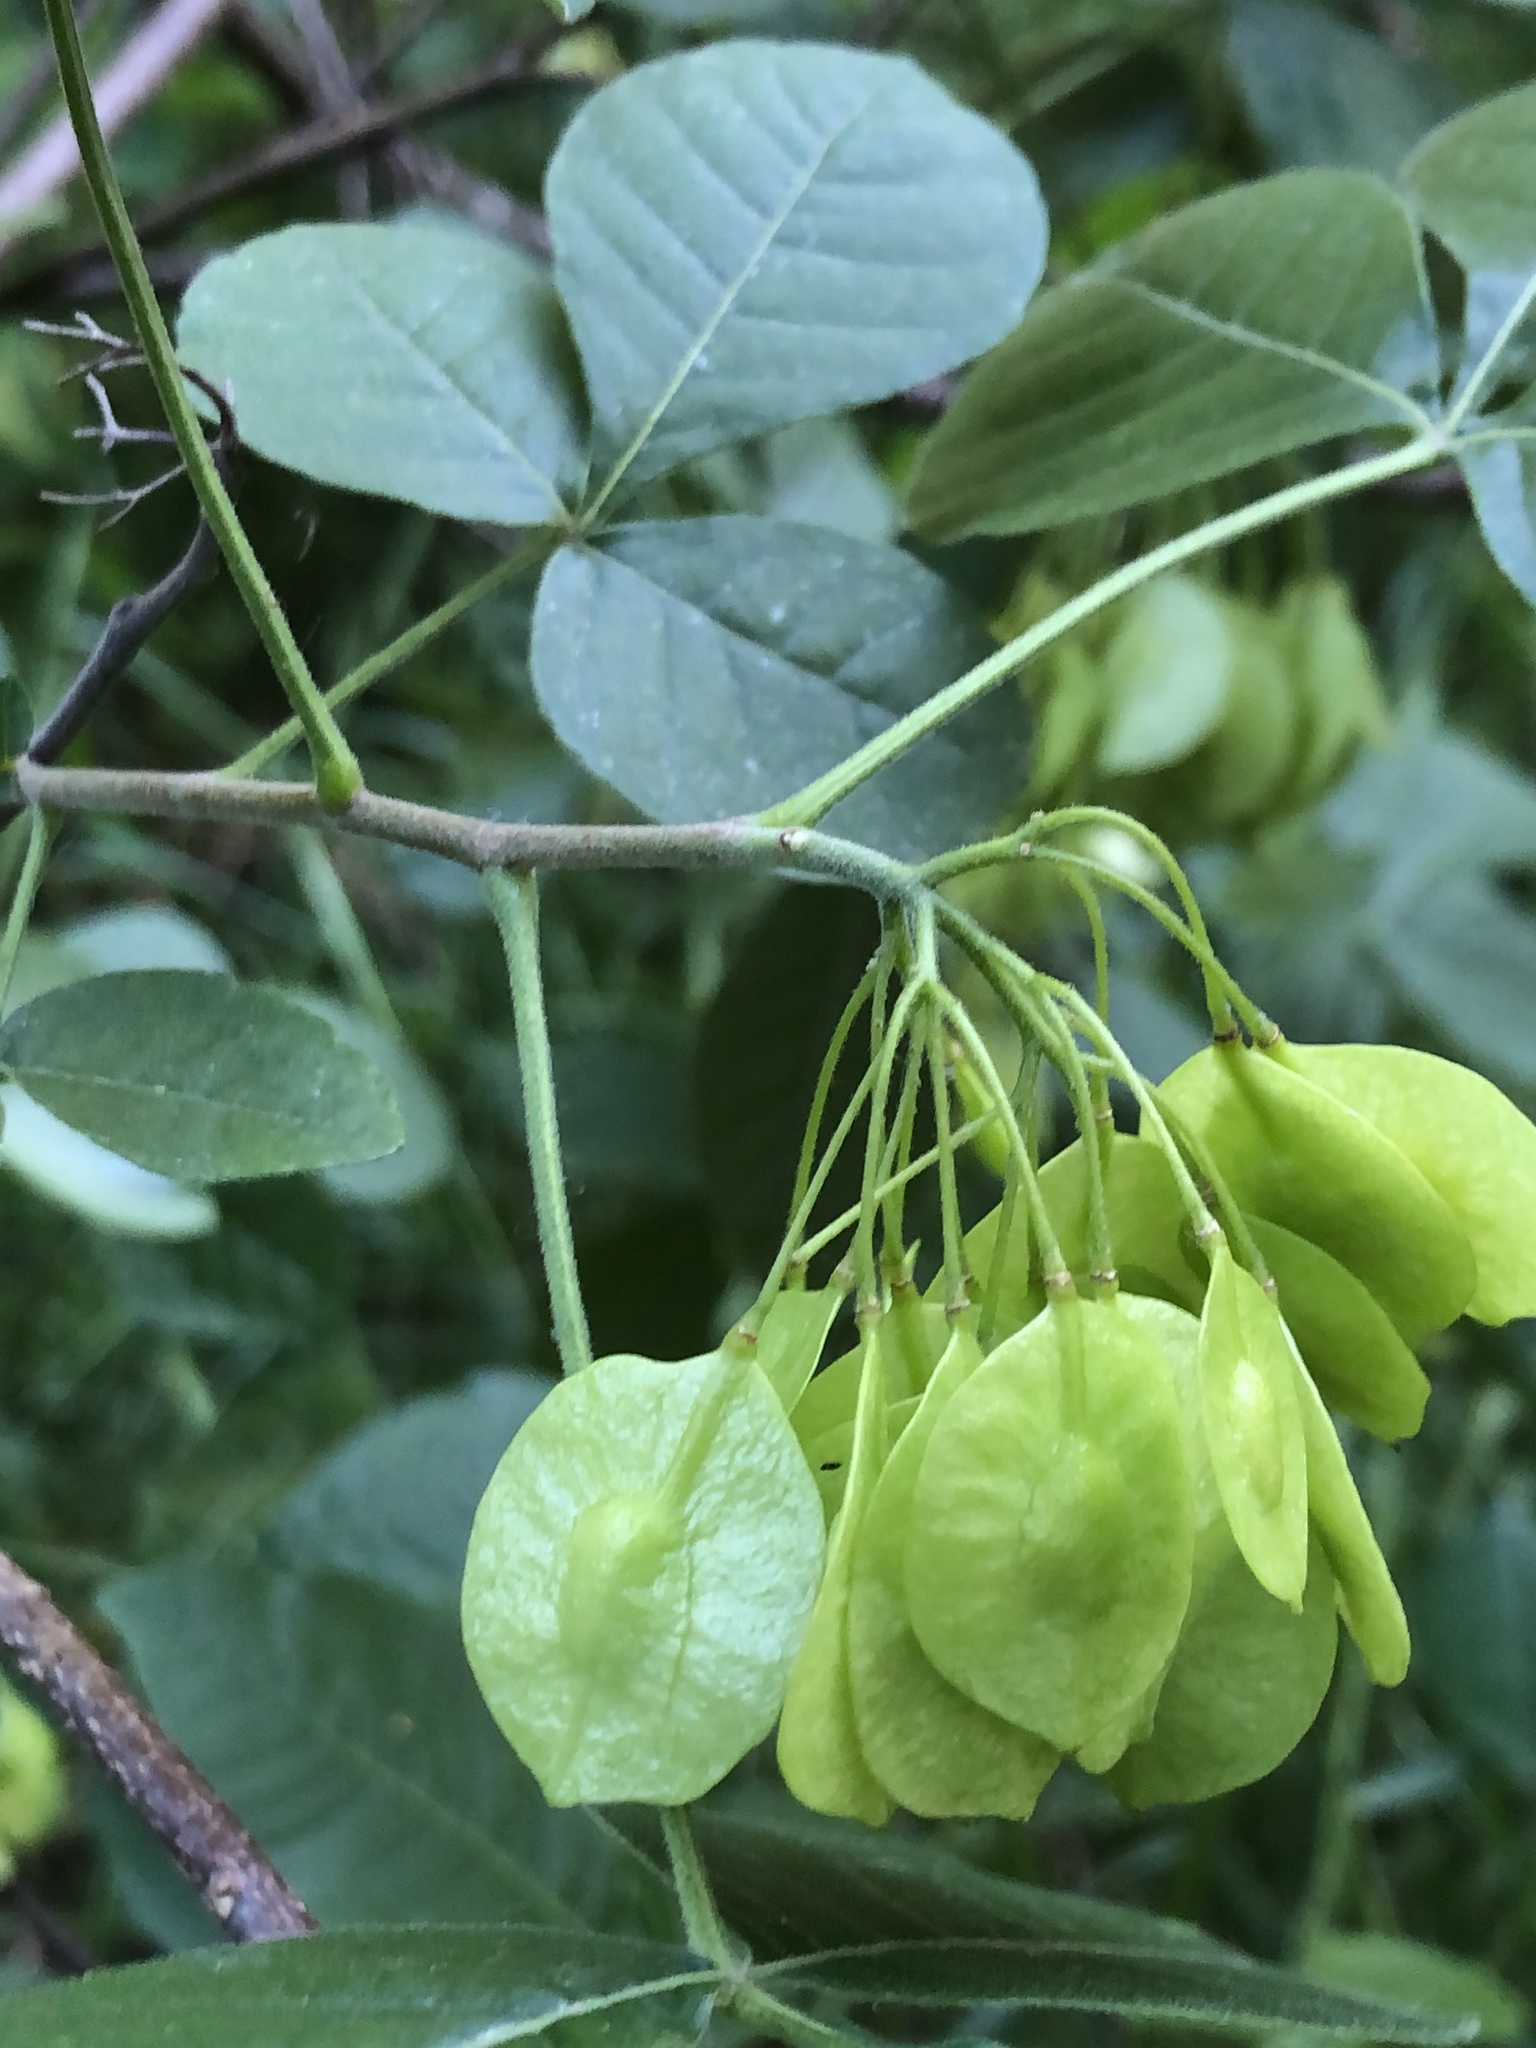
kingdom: Plantae
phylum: Tracheophyta
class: Magnoliopsida
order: Sapindales
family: Rutaceae
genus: Ptelea
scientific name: Ptelea trifoliata
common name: Common hop-tree
